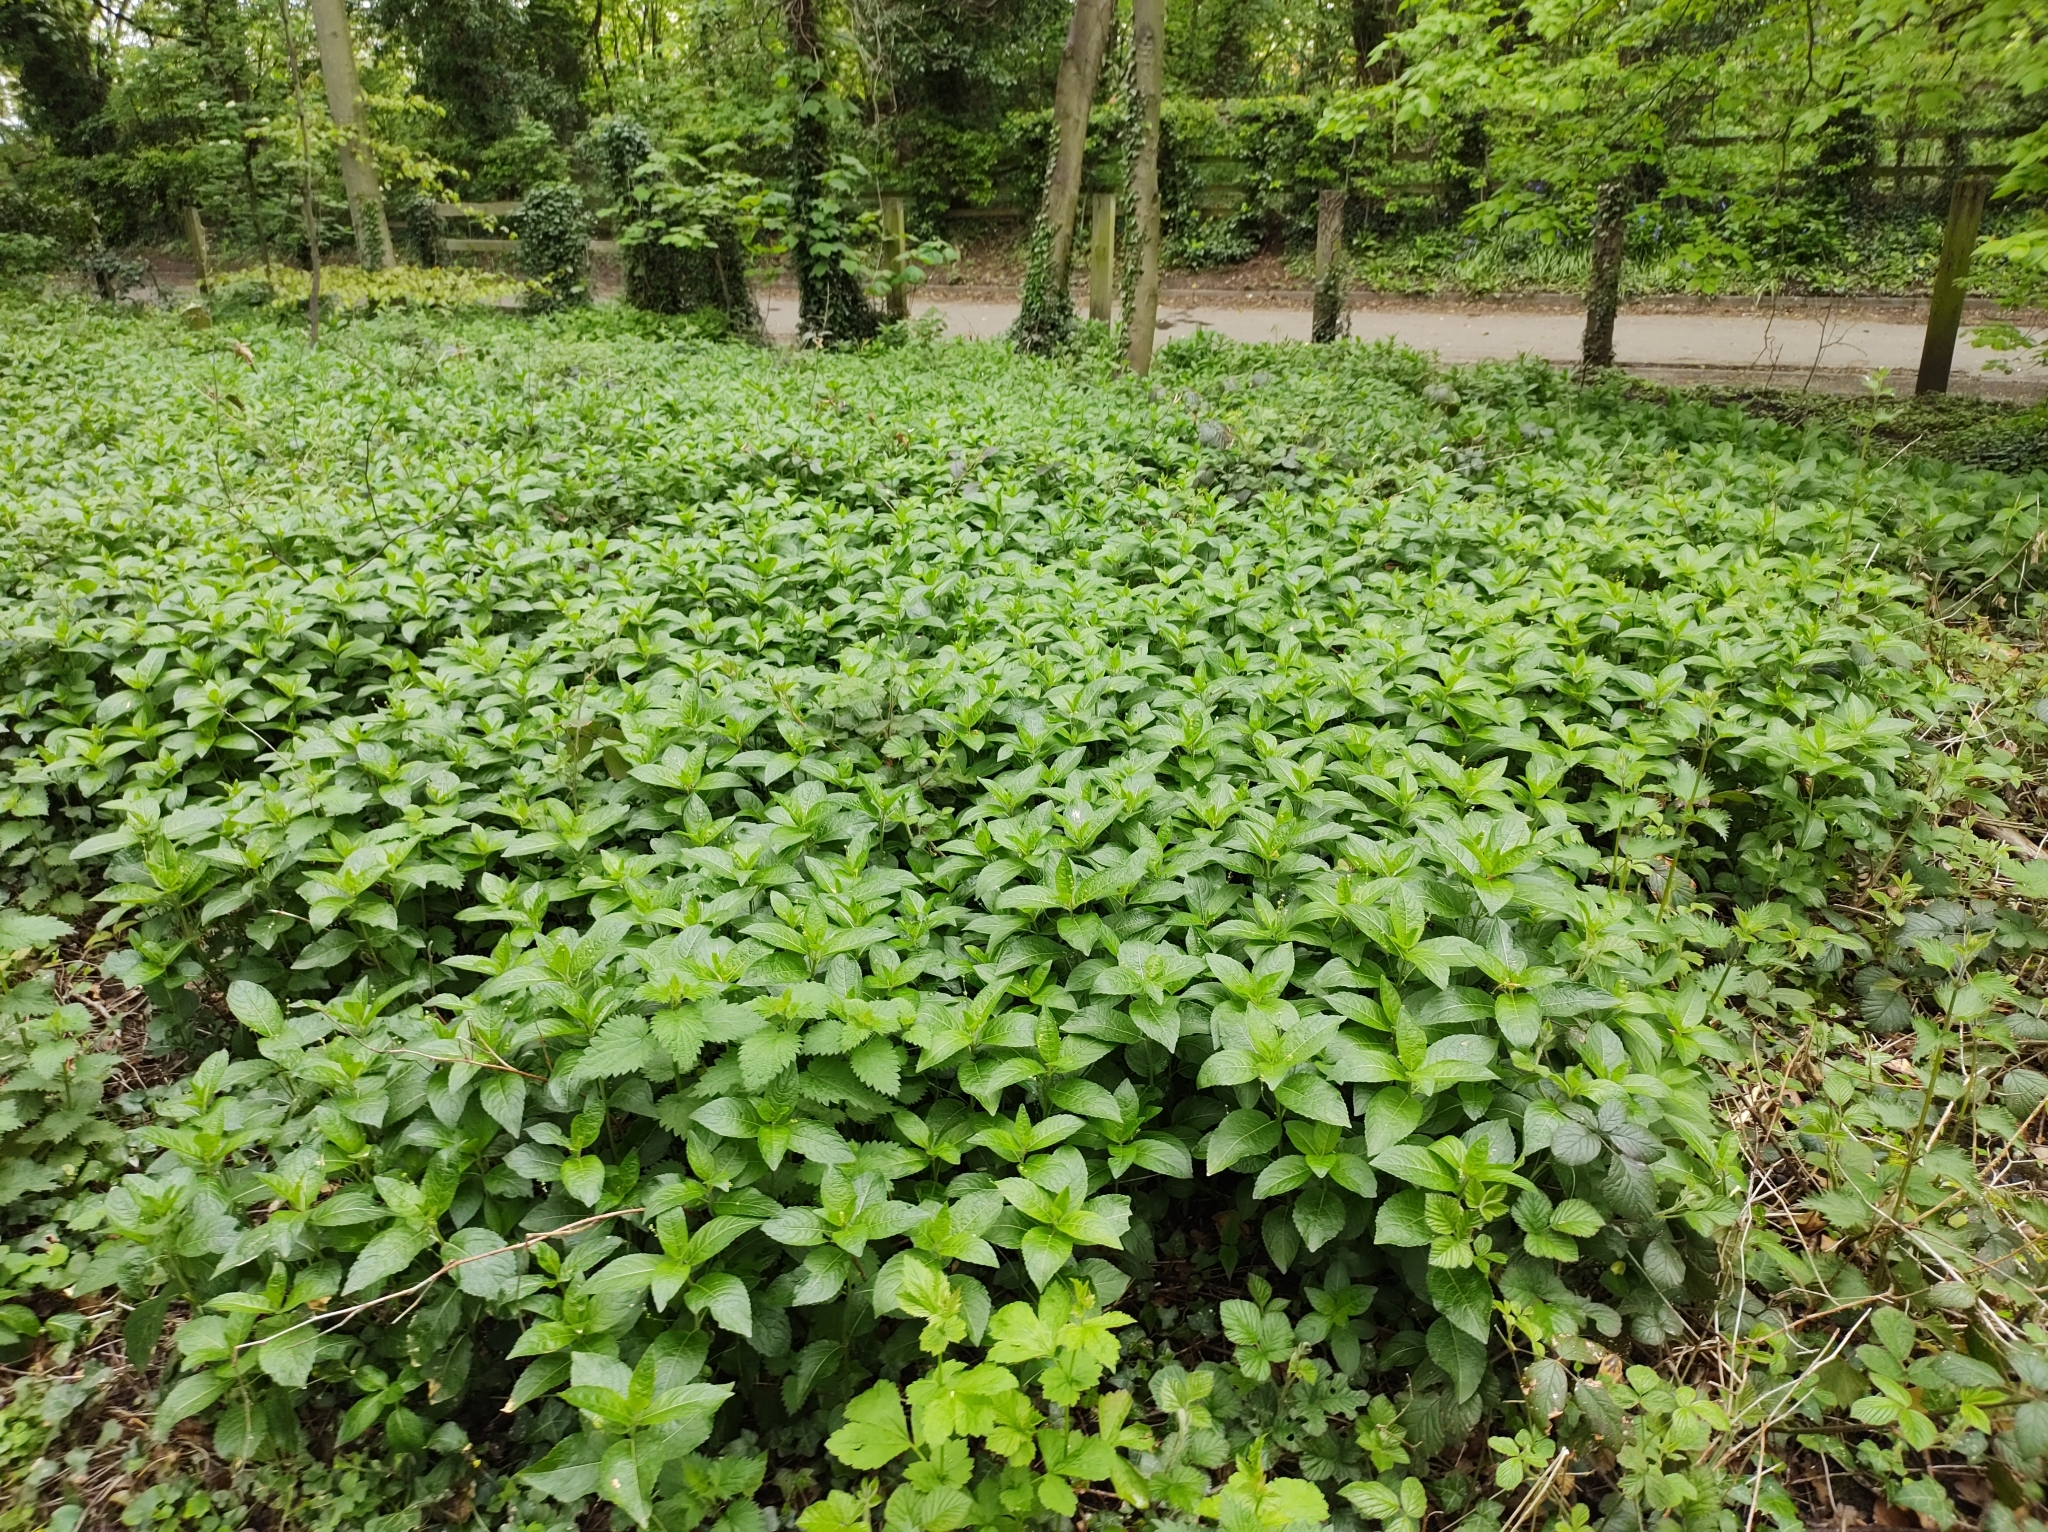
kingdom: Plantae
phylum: Tracheophyta
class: Magnoliopsida
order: Malpighiales
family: Euphorbiaceae
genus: Mercurialis
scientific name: Mercurialis perennis
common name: Dog mercury
